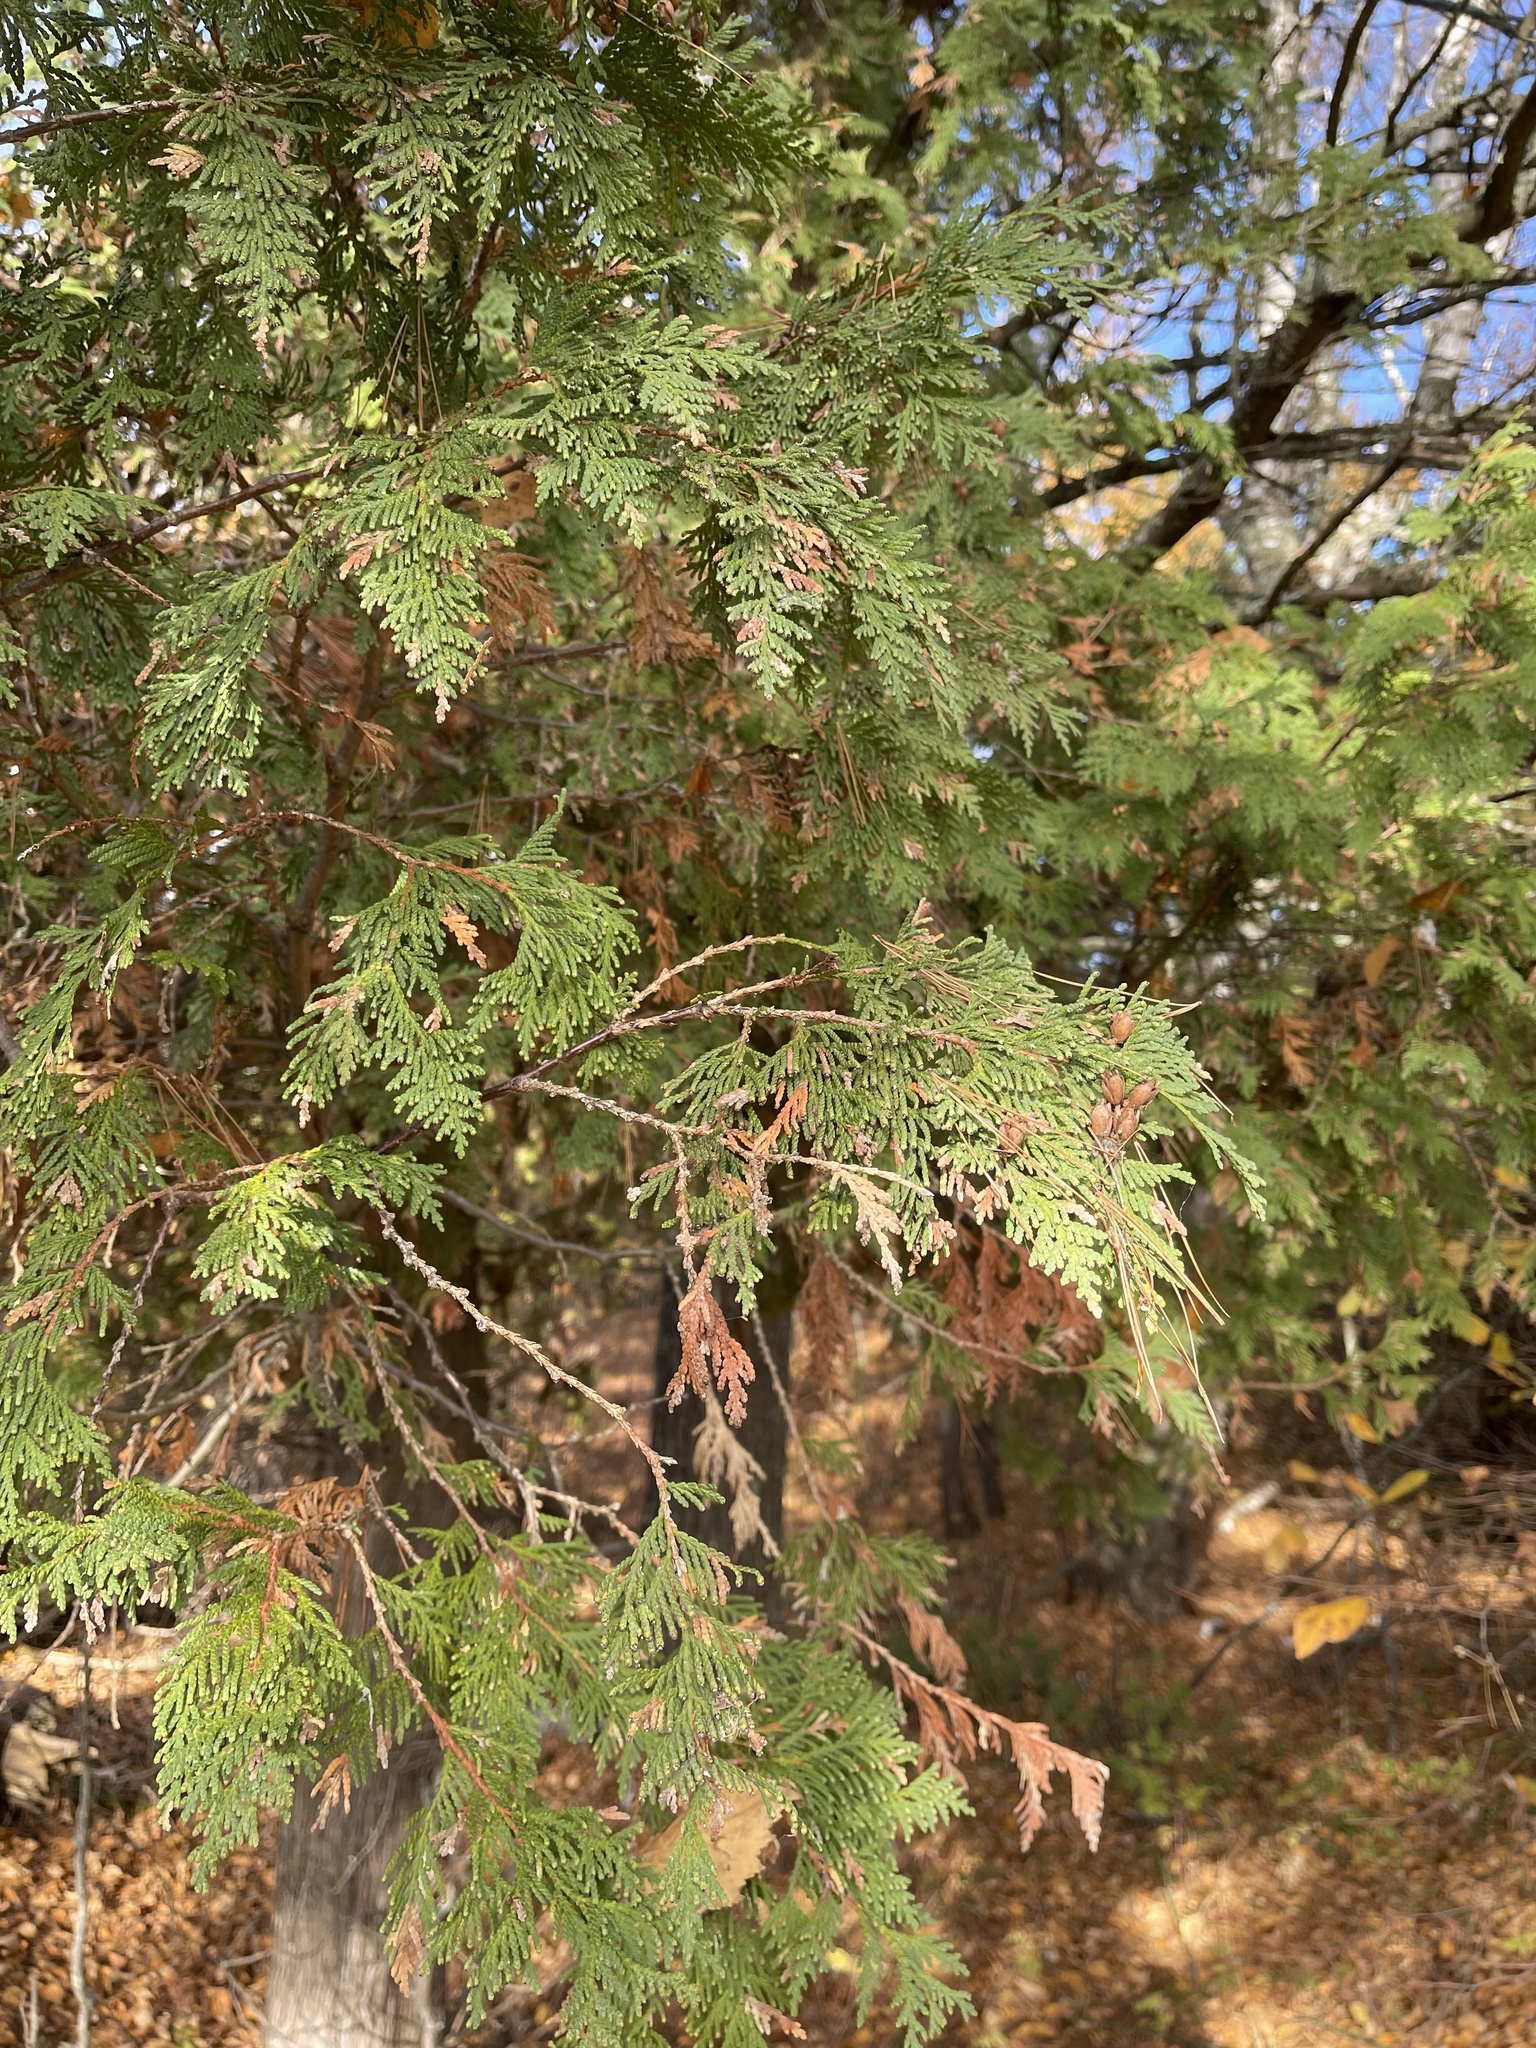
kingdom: Plantae
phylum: Tracheophyta
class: Pinopsida
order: Pinales
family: Cupressaceae
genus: Thuja
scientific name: Thuja occidentalis
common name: Northern white-cedar
